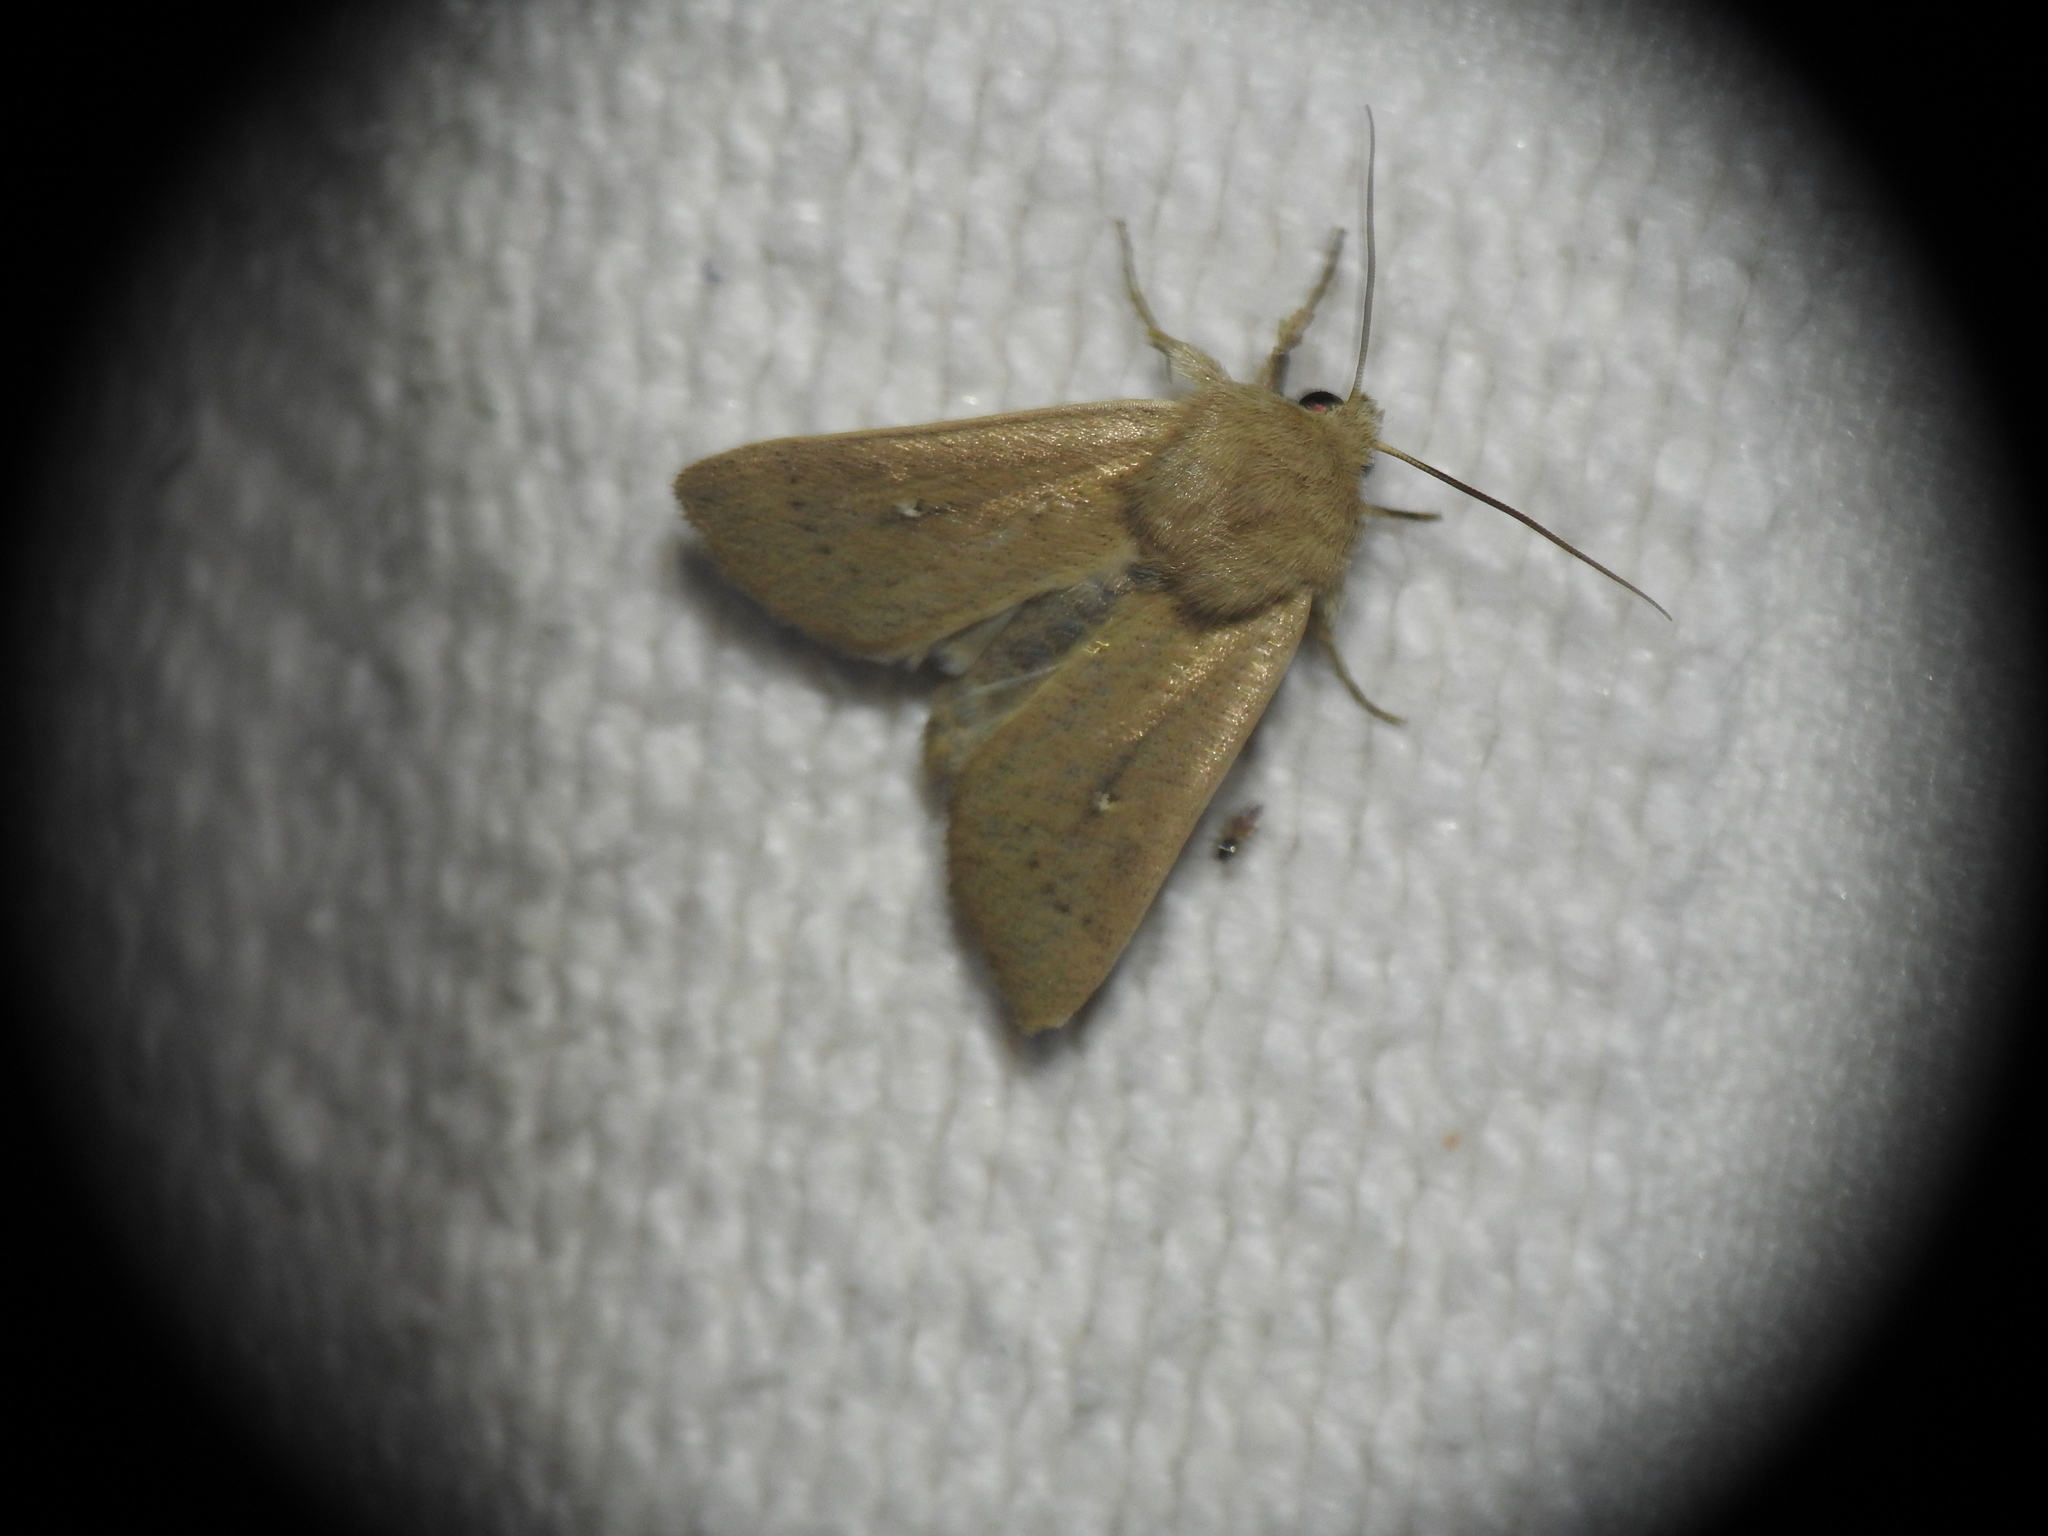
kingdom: Animalia
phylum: Arthropoda
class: Insecta
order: Lepidoptera
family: Noctuidae
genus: Mythimna
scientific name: Mythimna sicula
